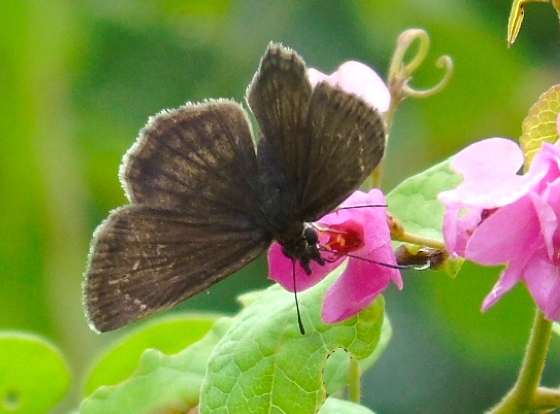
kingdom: Animalia
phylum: Arthropoda
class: Insecta
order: Lepidoptera
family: Hesperiidae
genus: Zopyrion
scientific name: Zopyrion sandace
